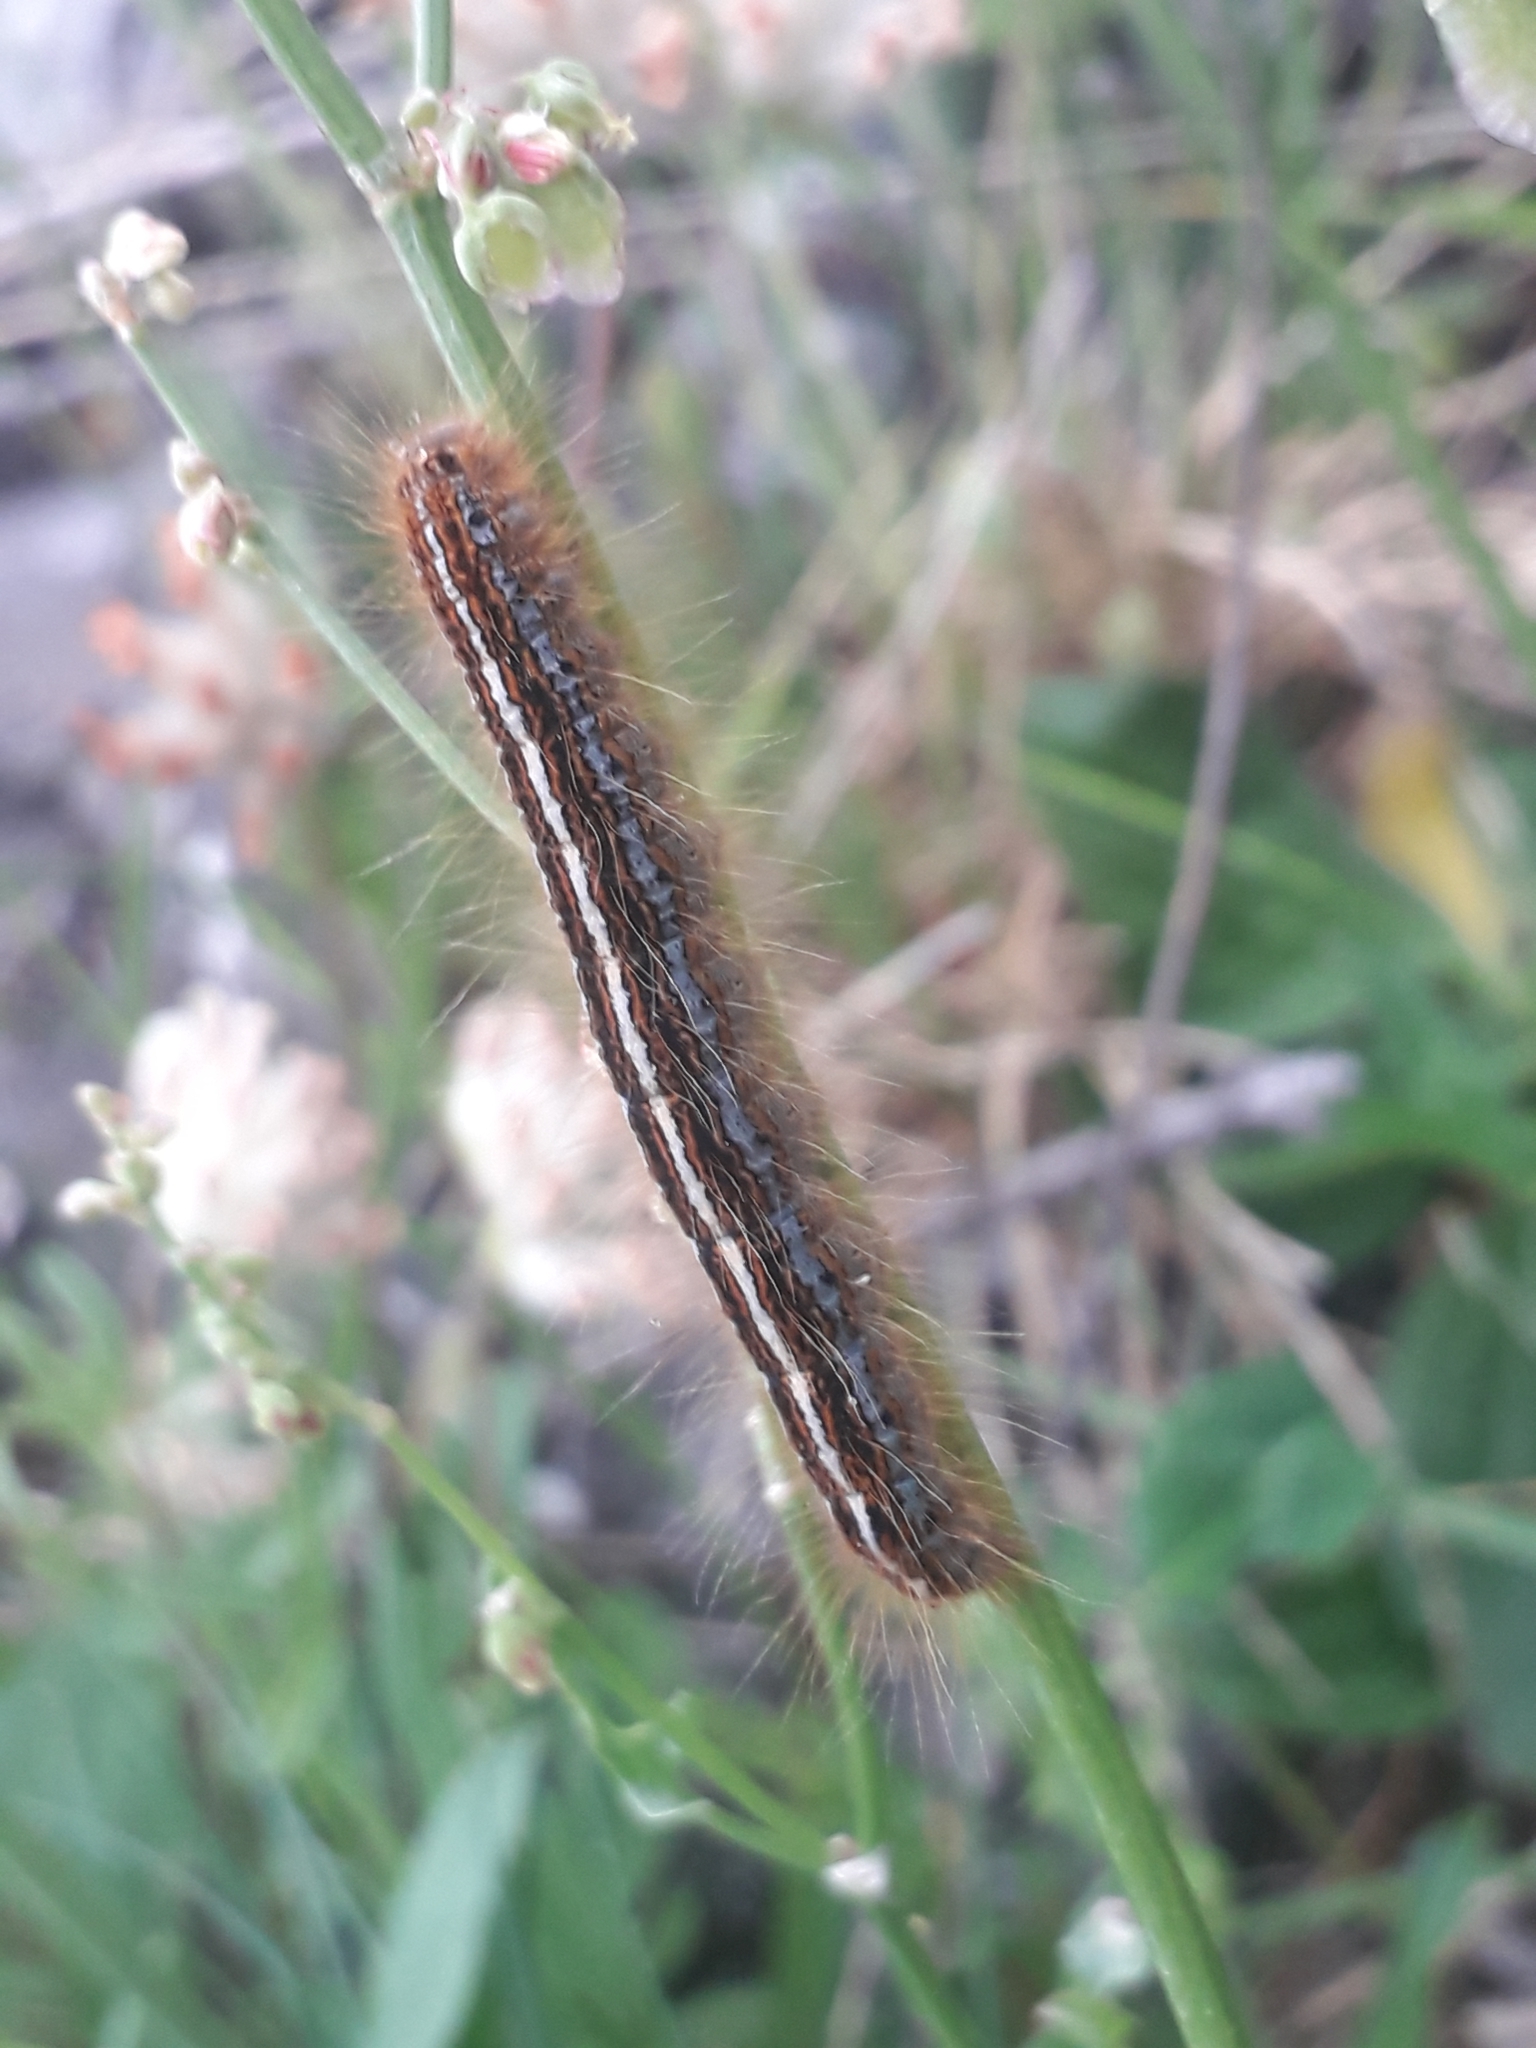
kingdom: Animalia
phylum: Arthropoda
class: Insecta
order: Lepidoptera
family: Lasiocampidae
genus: Malacosoma
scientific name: Malacosoma alpicola
